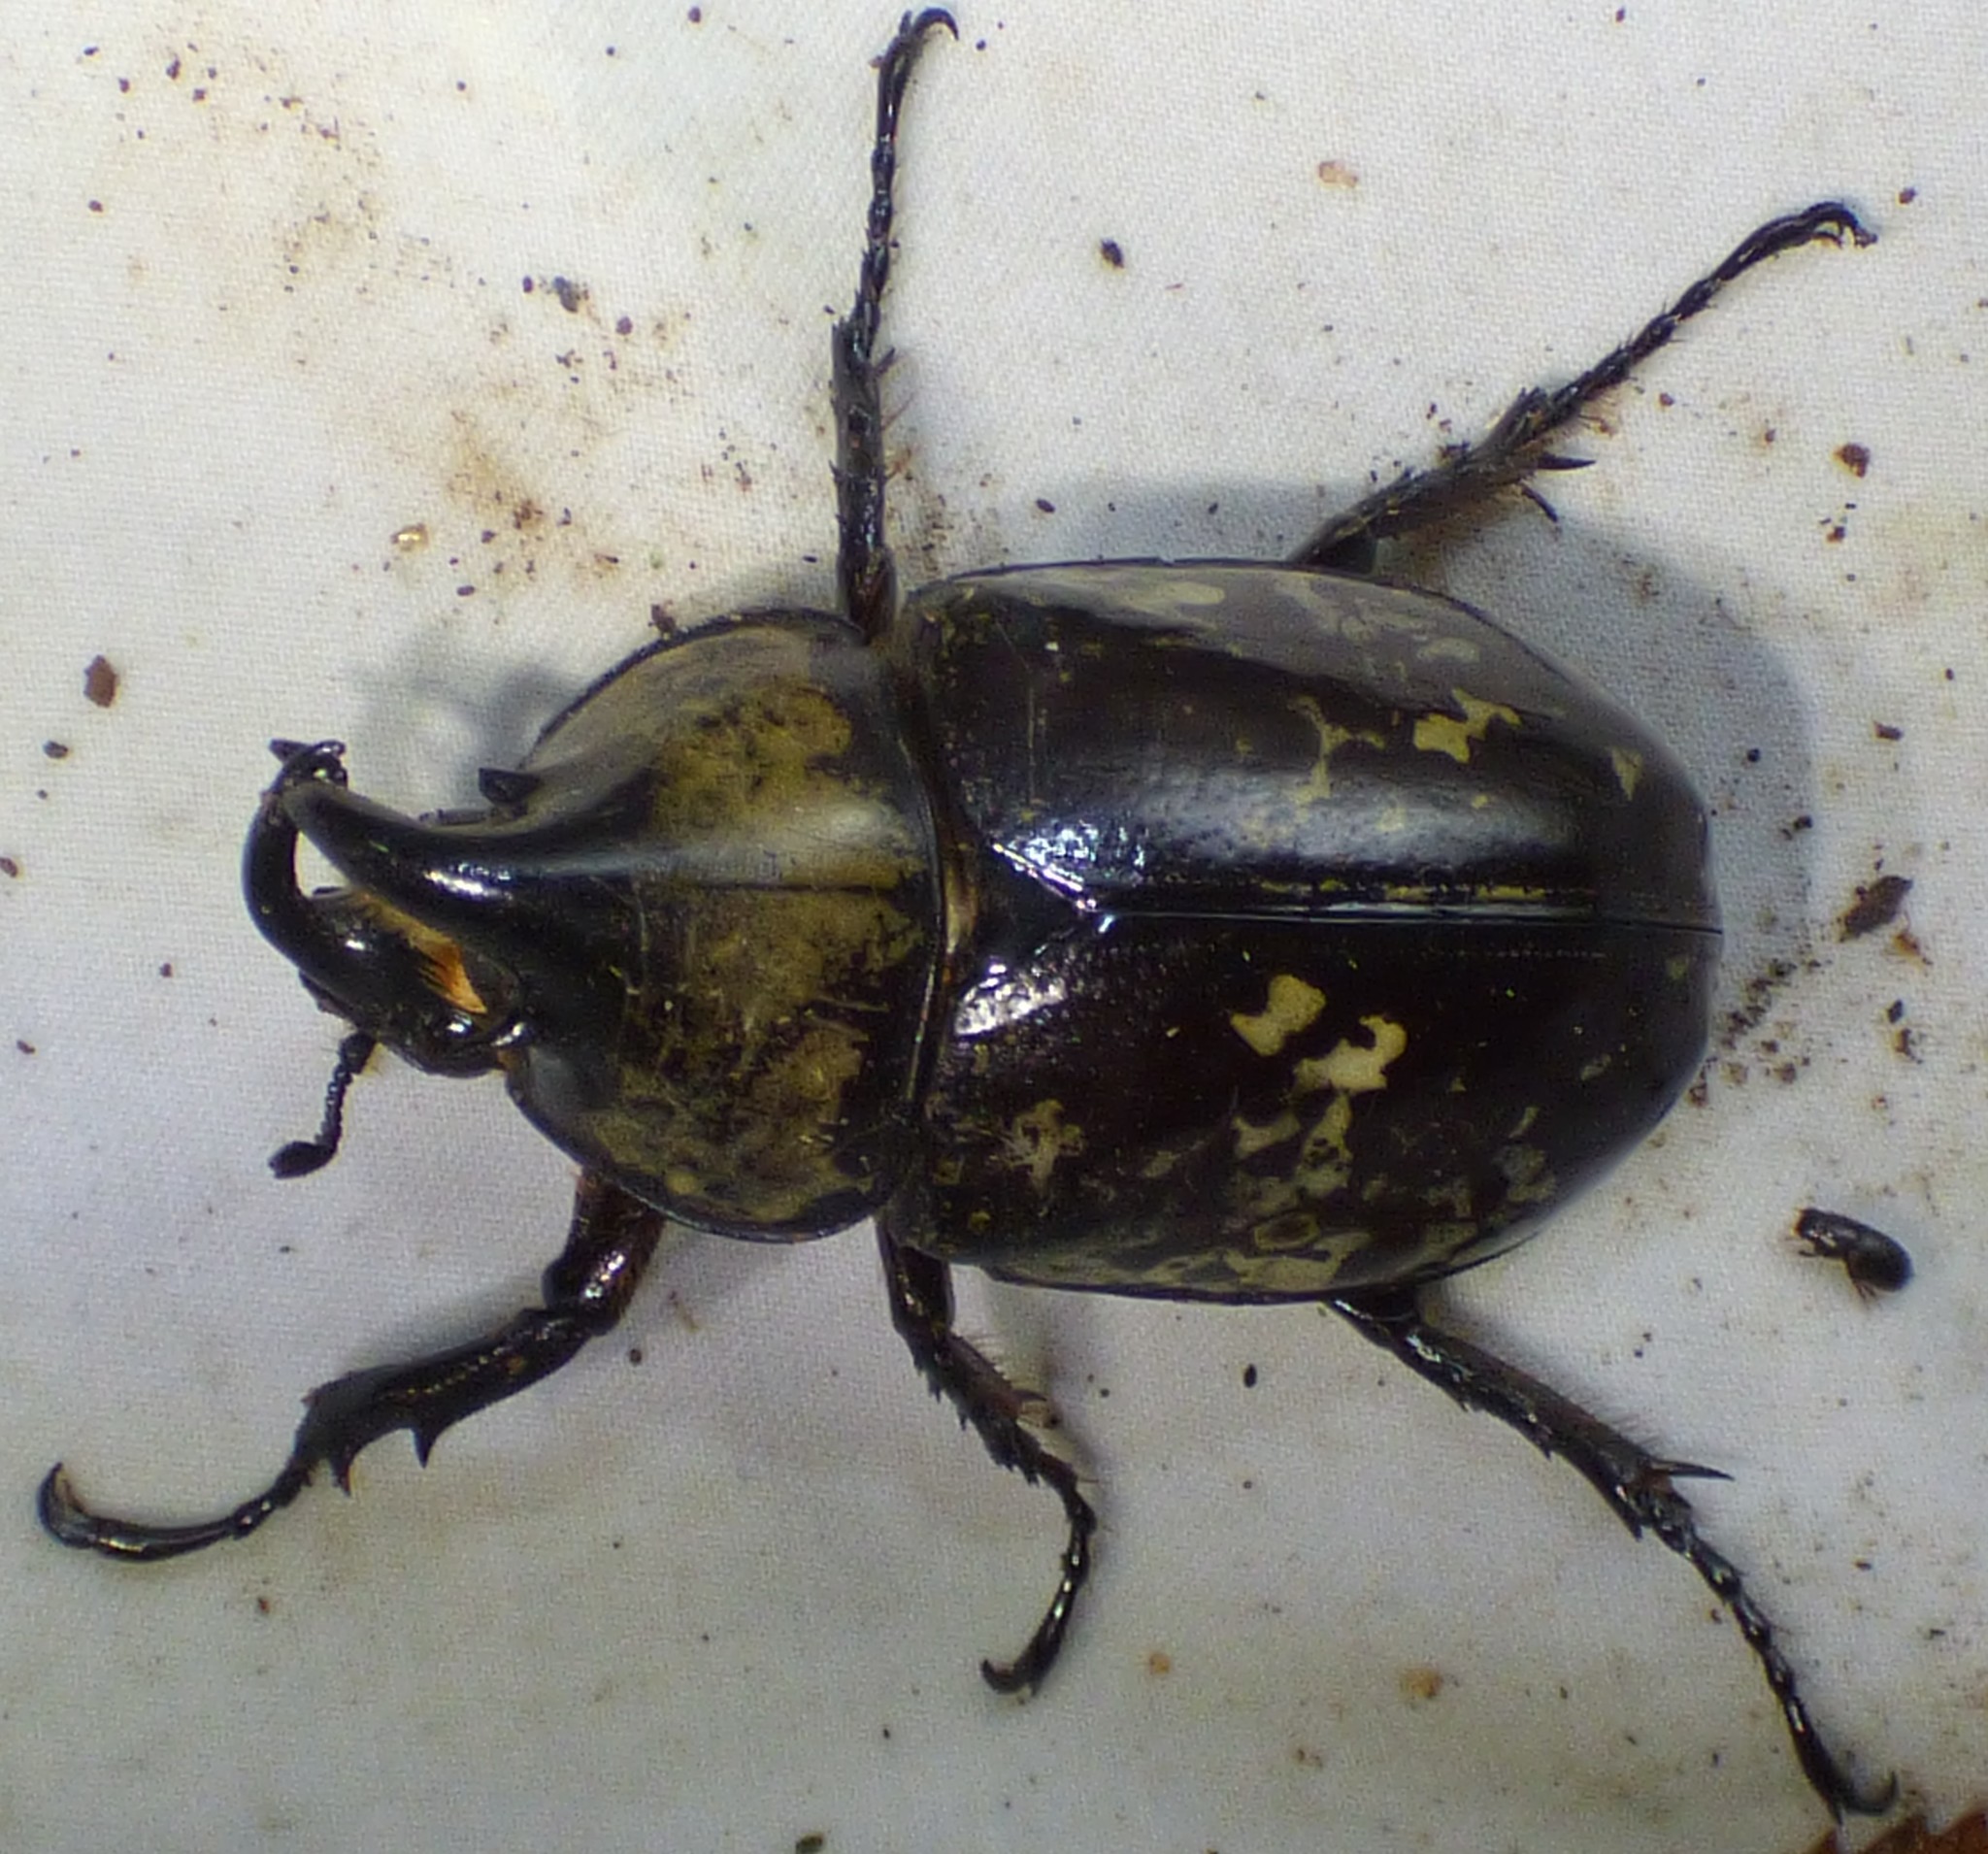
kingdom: Animalia
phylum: Arthropoda
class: Insecta
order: Coleoptera
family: Scarabaeidae
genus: Dynastes
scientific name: Dynastes tityus
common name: Eastern hercules beetle
